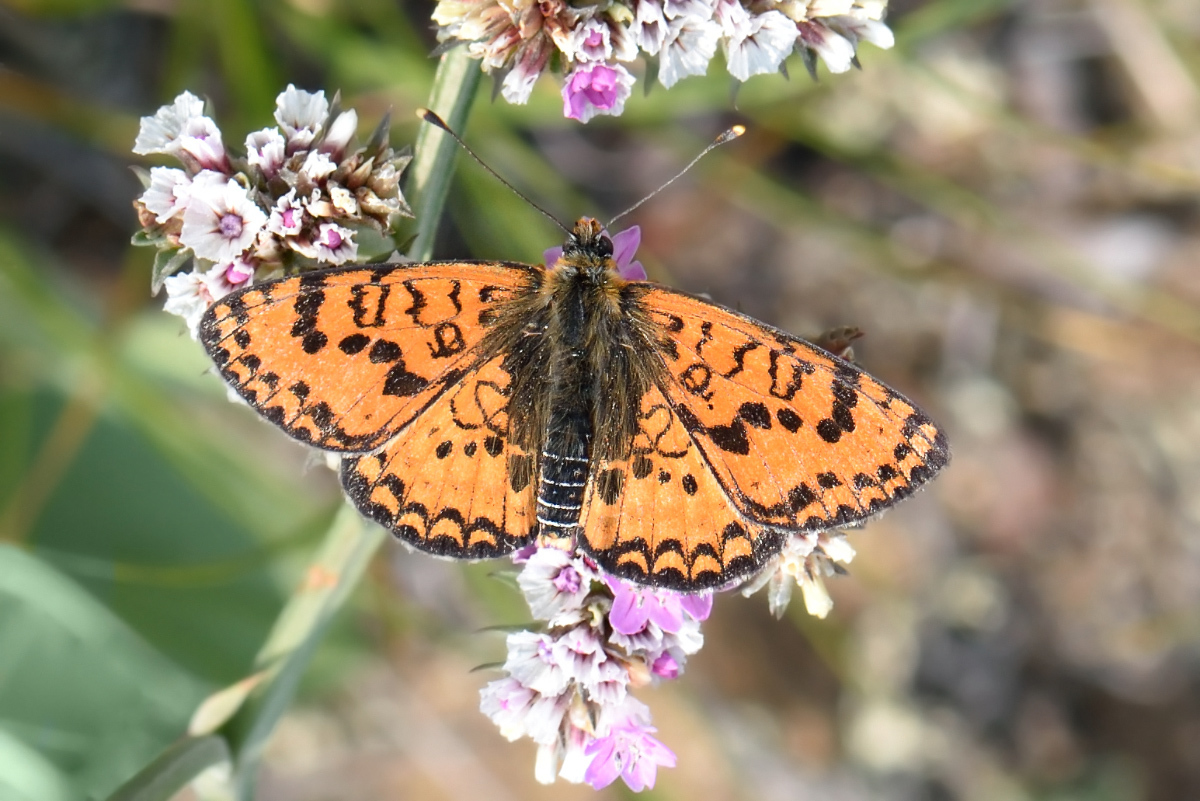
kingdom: Animalia
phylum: Arthropoda
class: Insecta
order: Lepidoptera
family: Nymphalidae
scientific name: Nymphalidae
